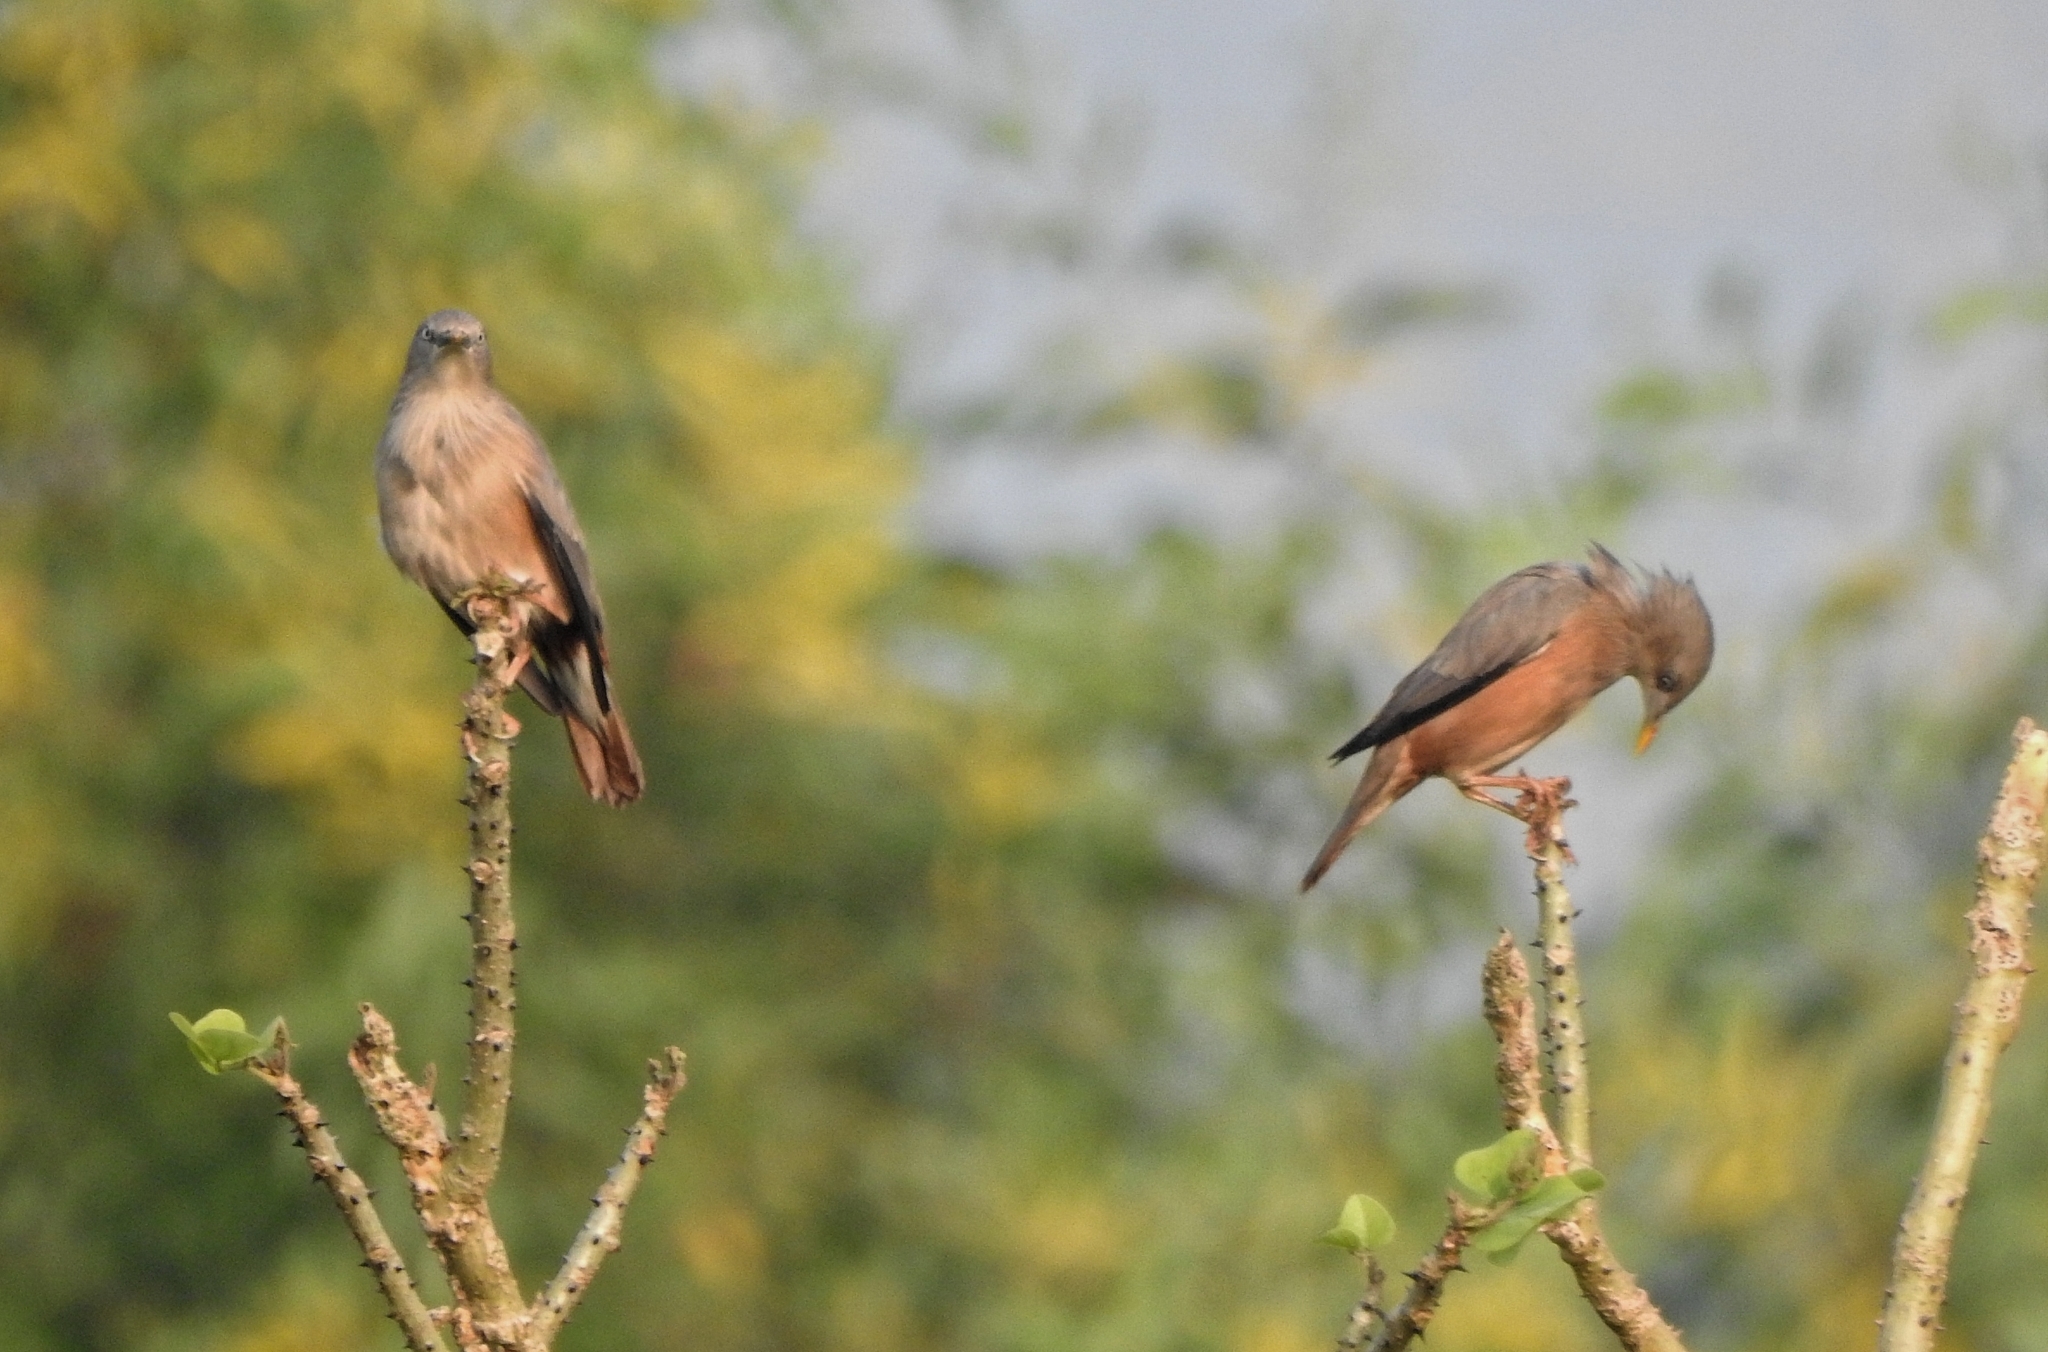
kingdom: Animalia
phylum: Chordata
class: Aves
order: Passeriformes
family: Sturnidae
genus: Sturnia
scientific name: Sturnia malabarica
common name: Chestnut-tailed starling
